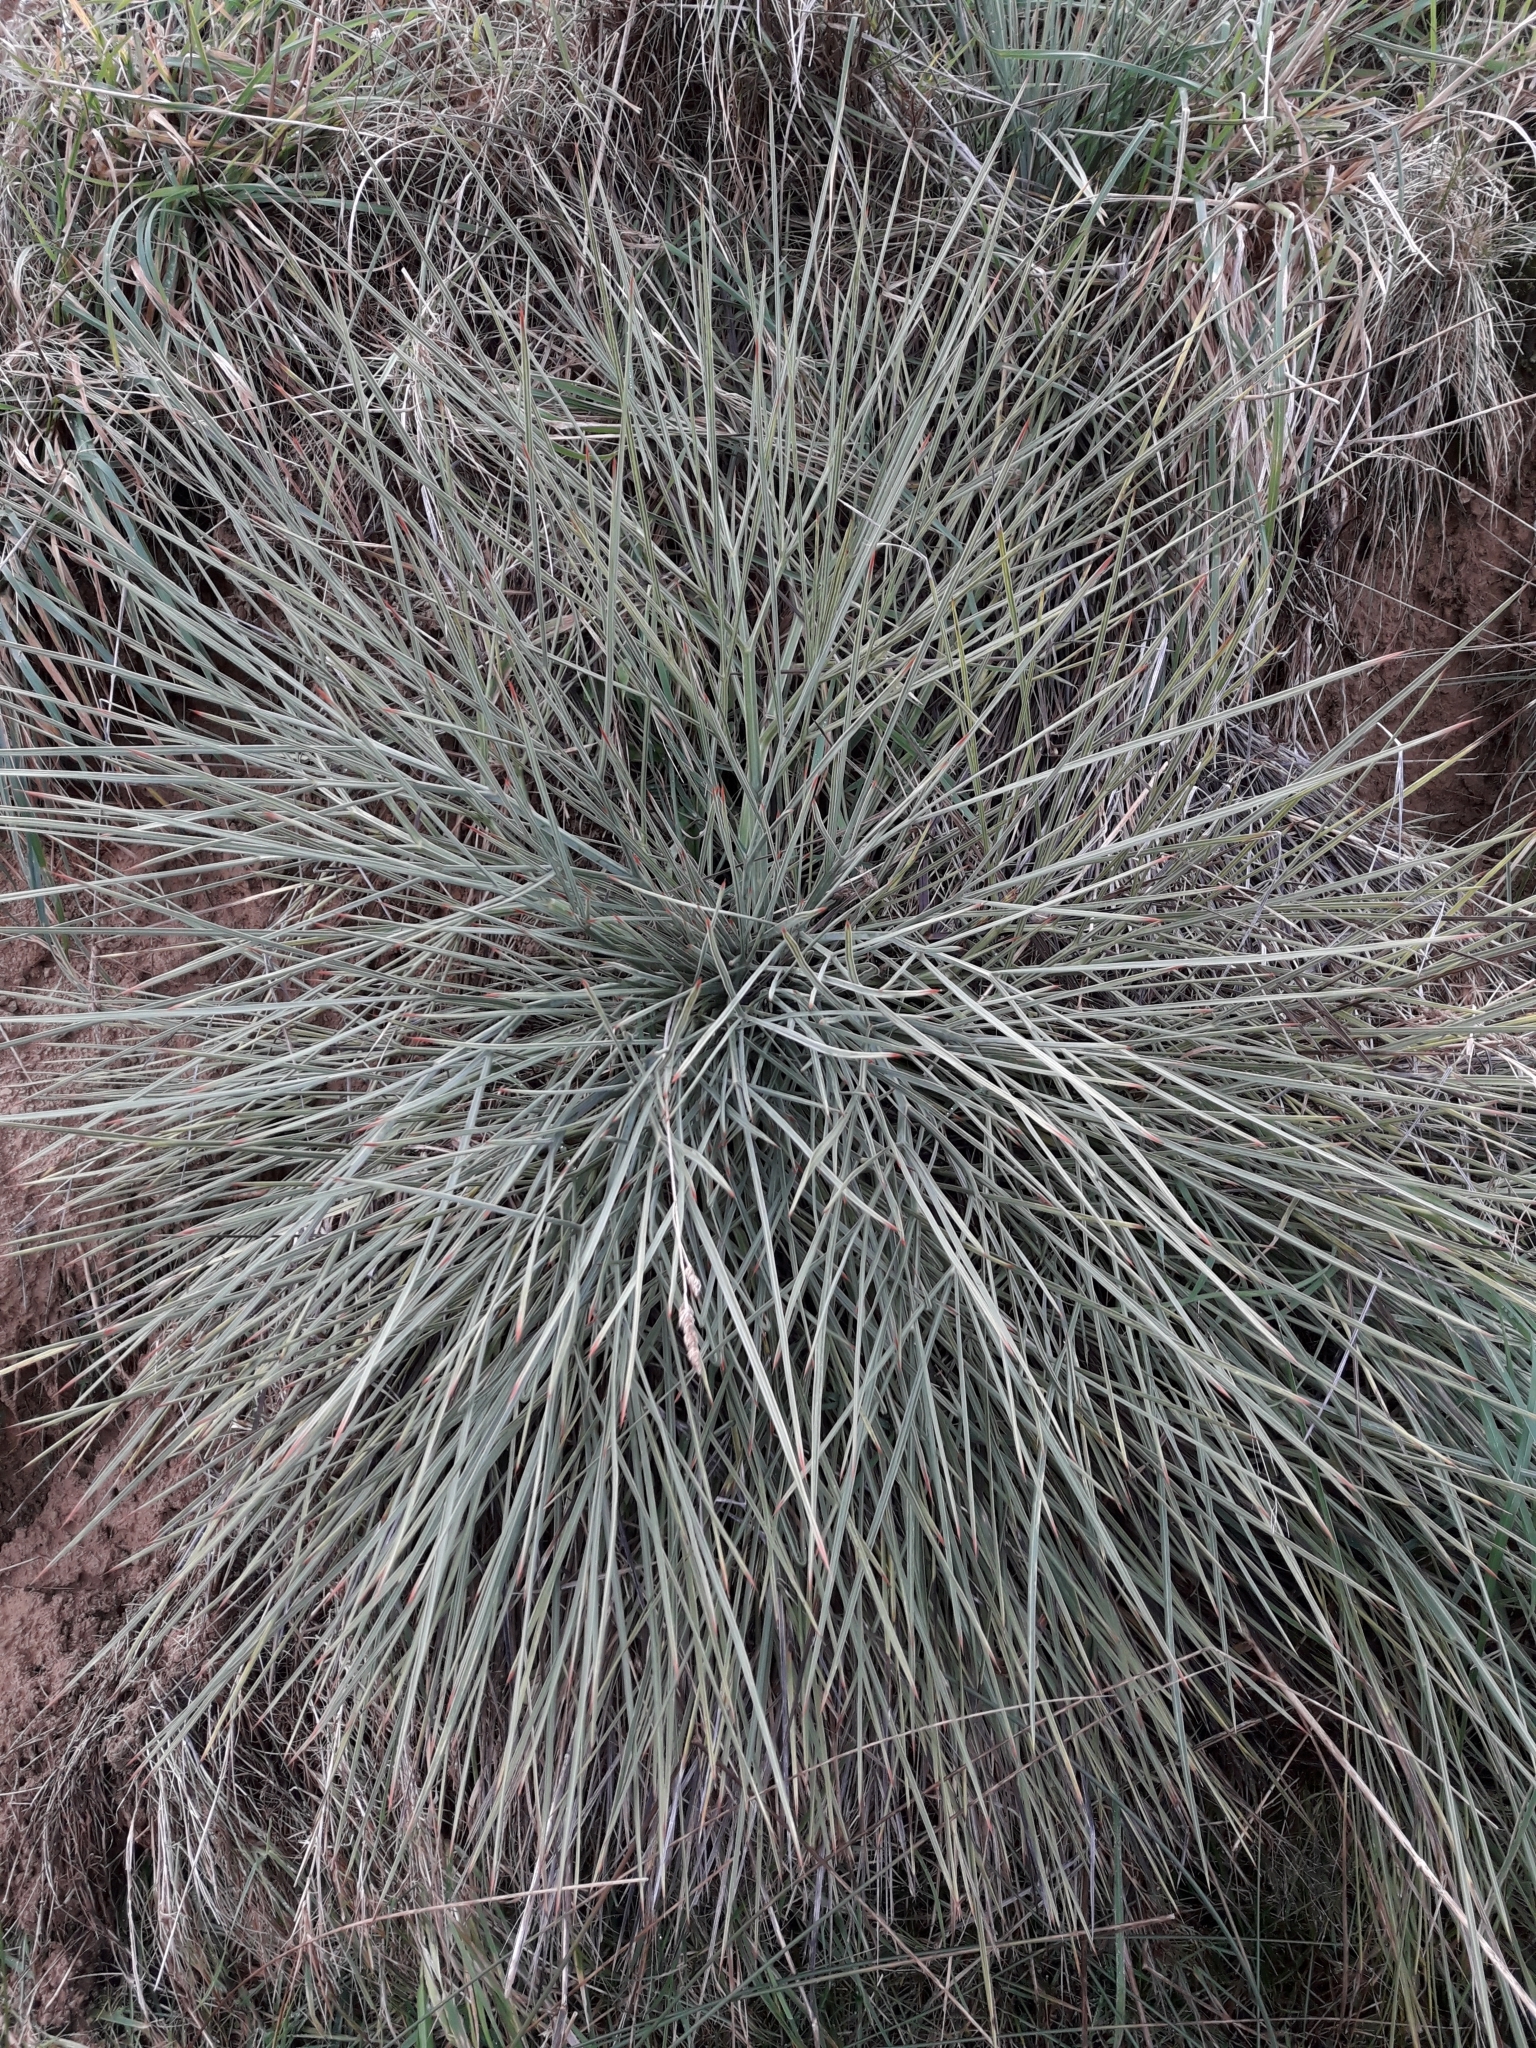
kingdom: Plantae
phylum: Tracheophyta
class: Magnoliopsida
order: Apiales
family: Apiaceae
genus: Aciphylla
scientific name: Aciphylla squarrosa
